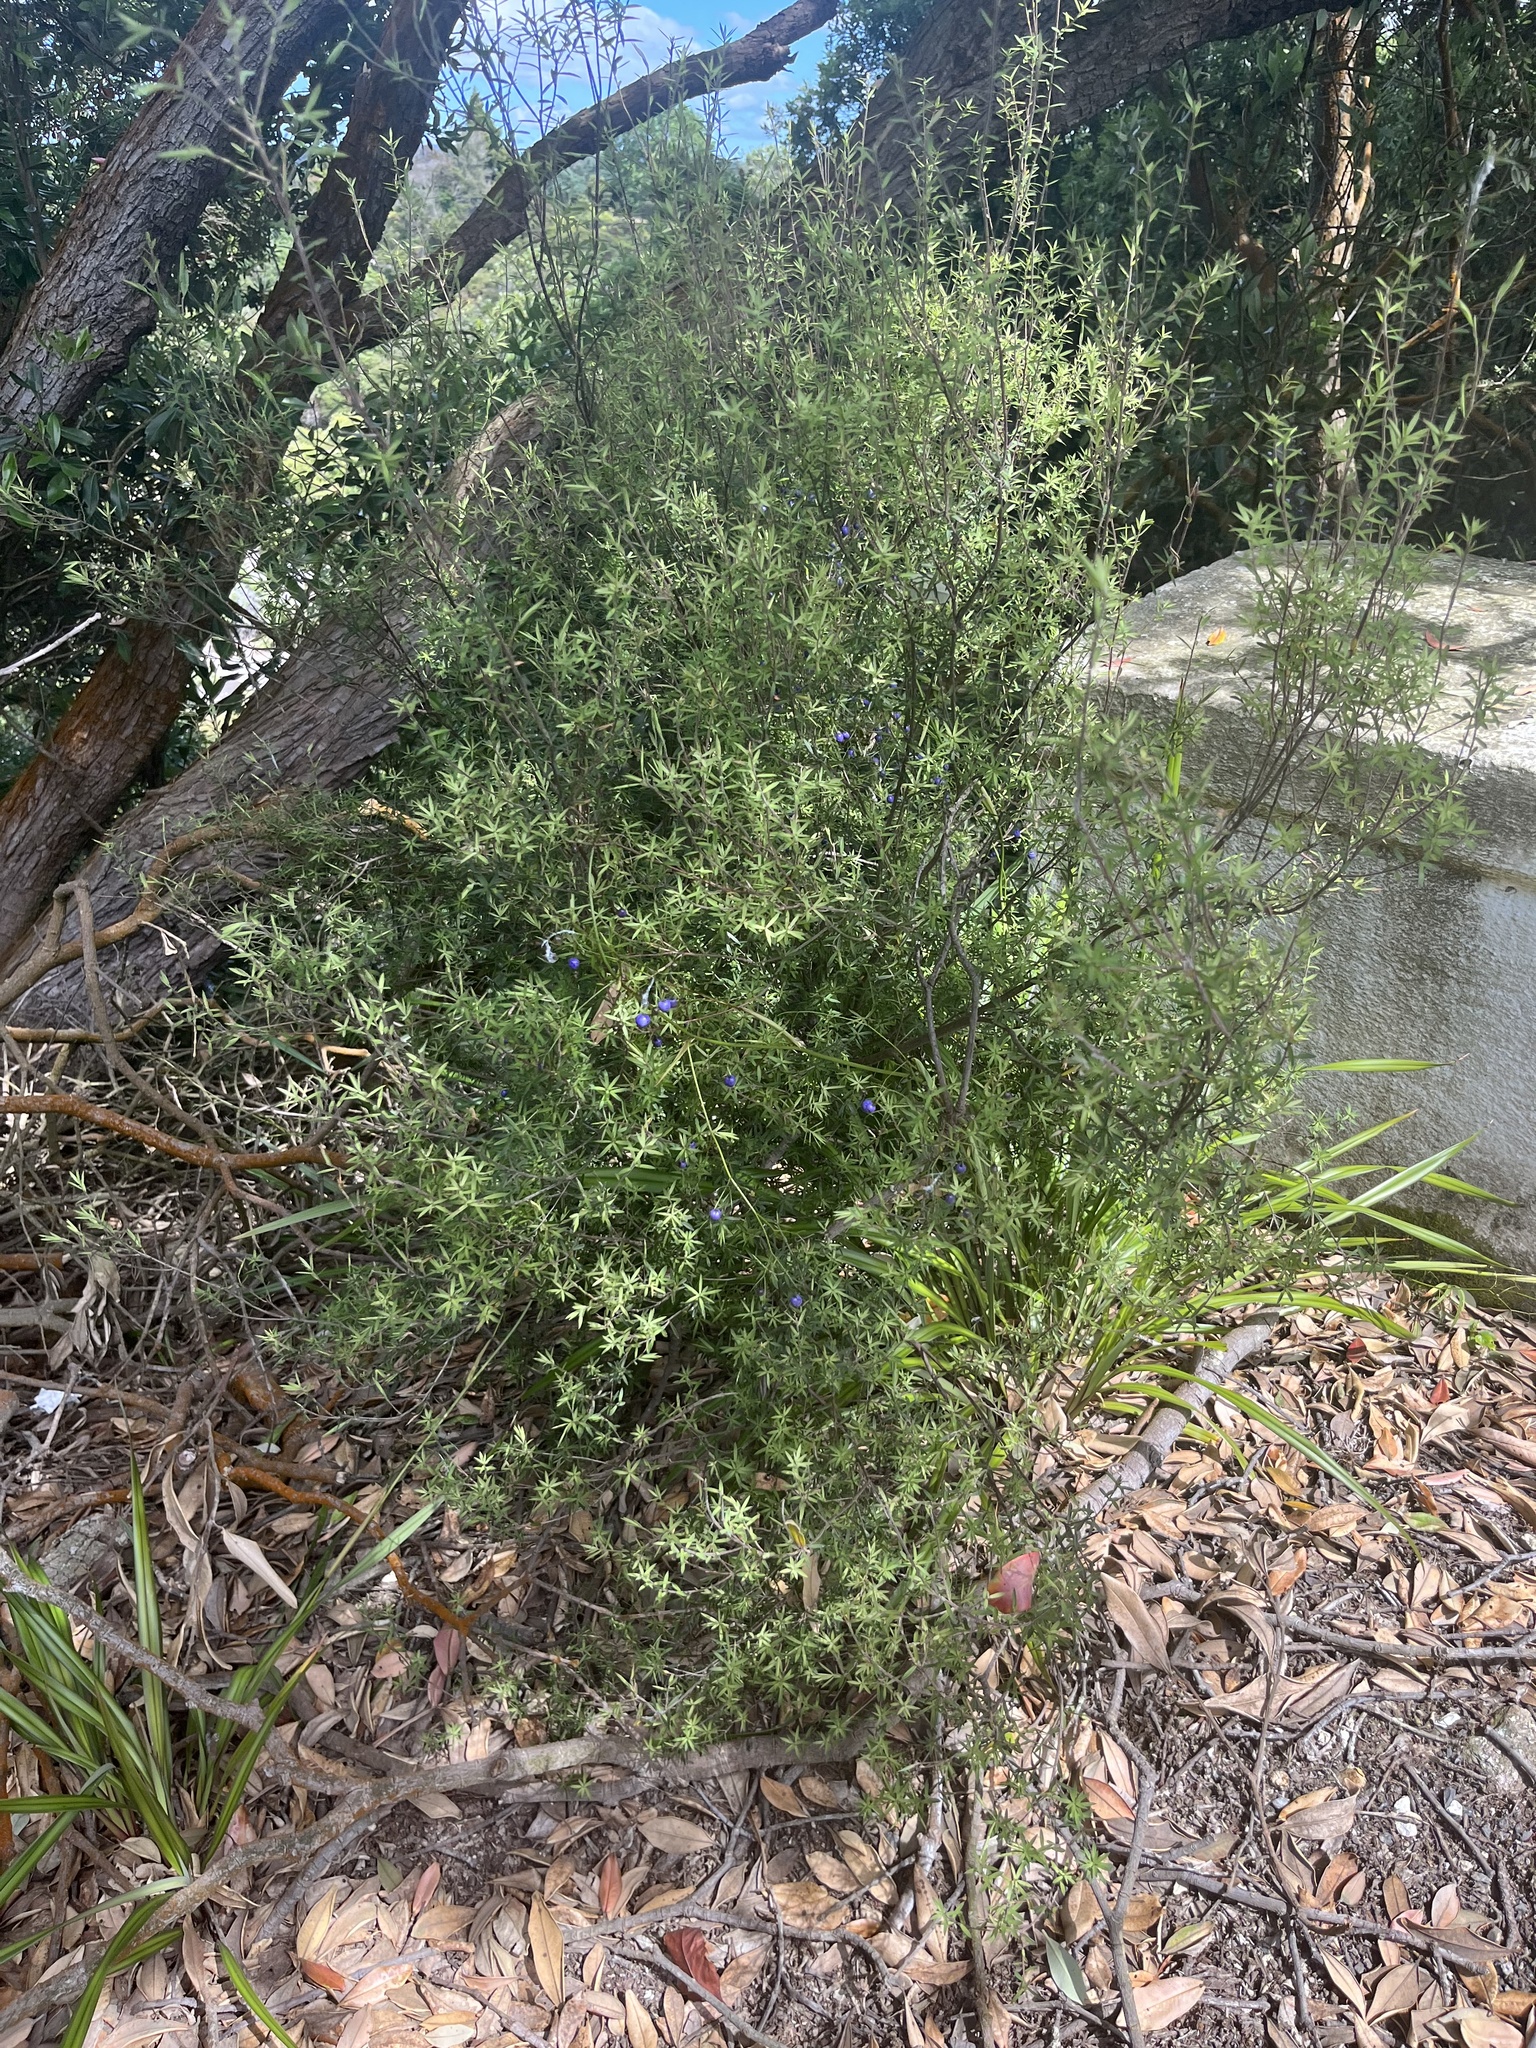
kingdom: Plantae
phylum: Tracheophyta
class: Magnoliopsida
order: Ericales
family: Ericaceae
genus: Leucopogon
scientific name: Leucopogon fasciculatus
